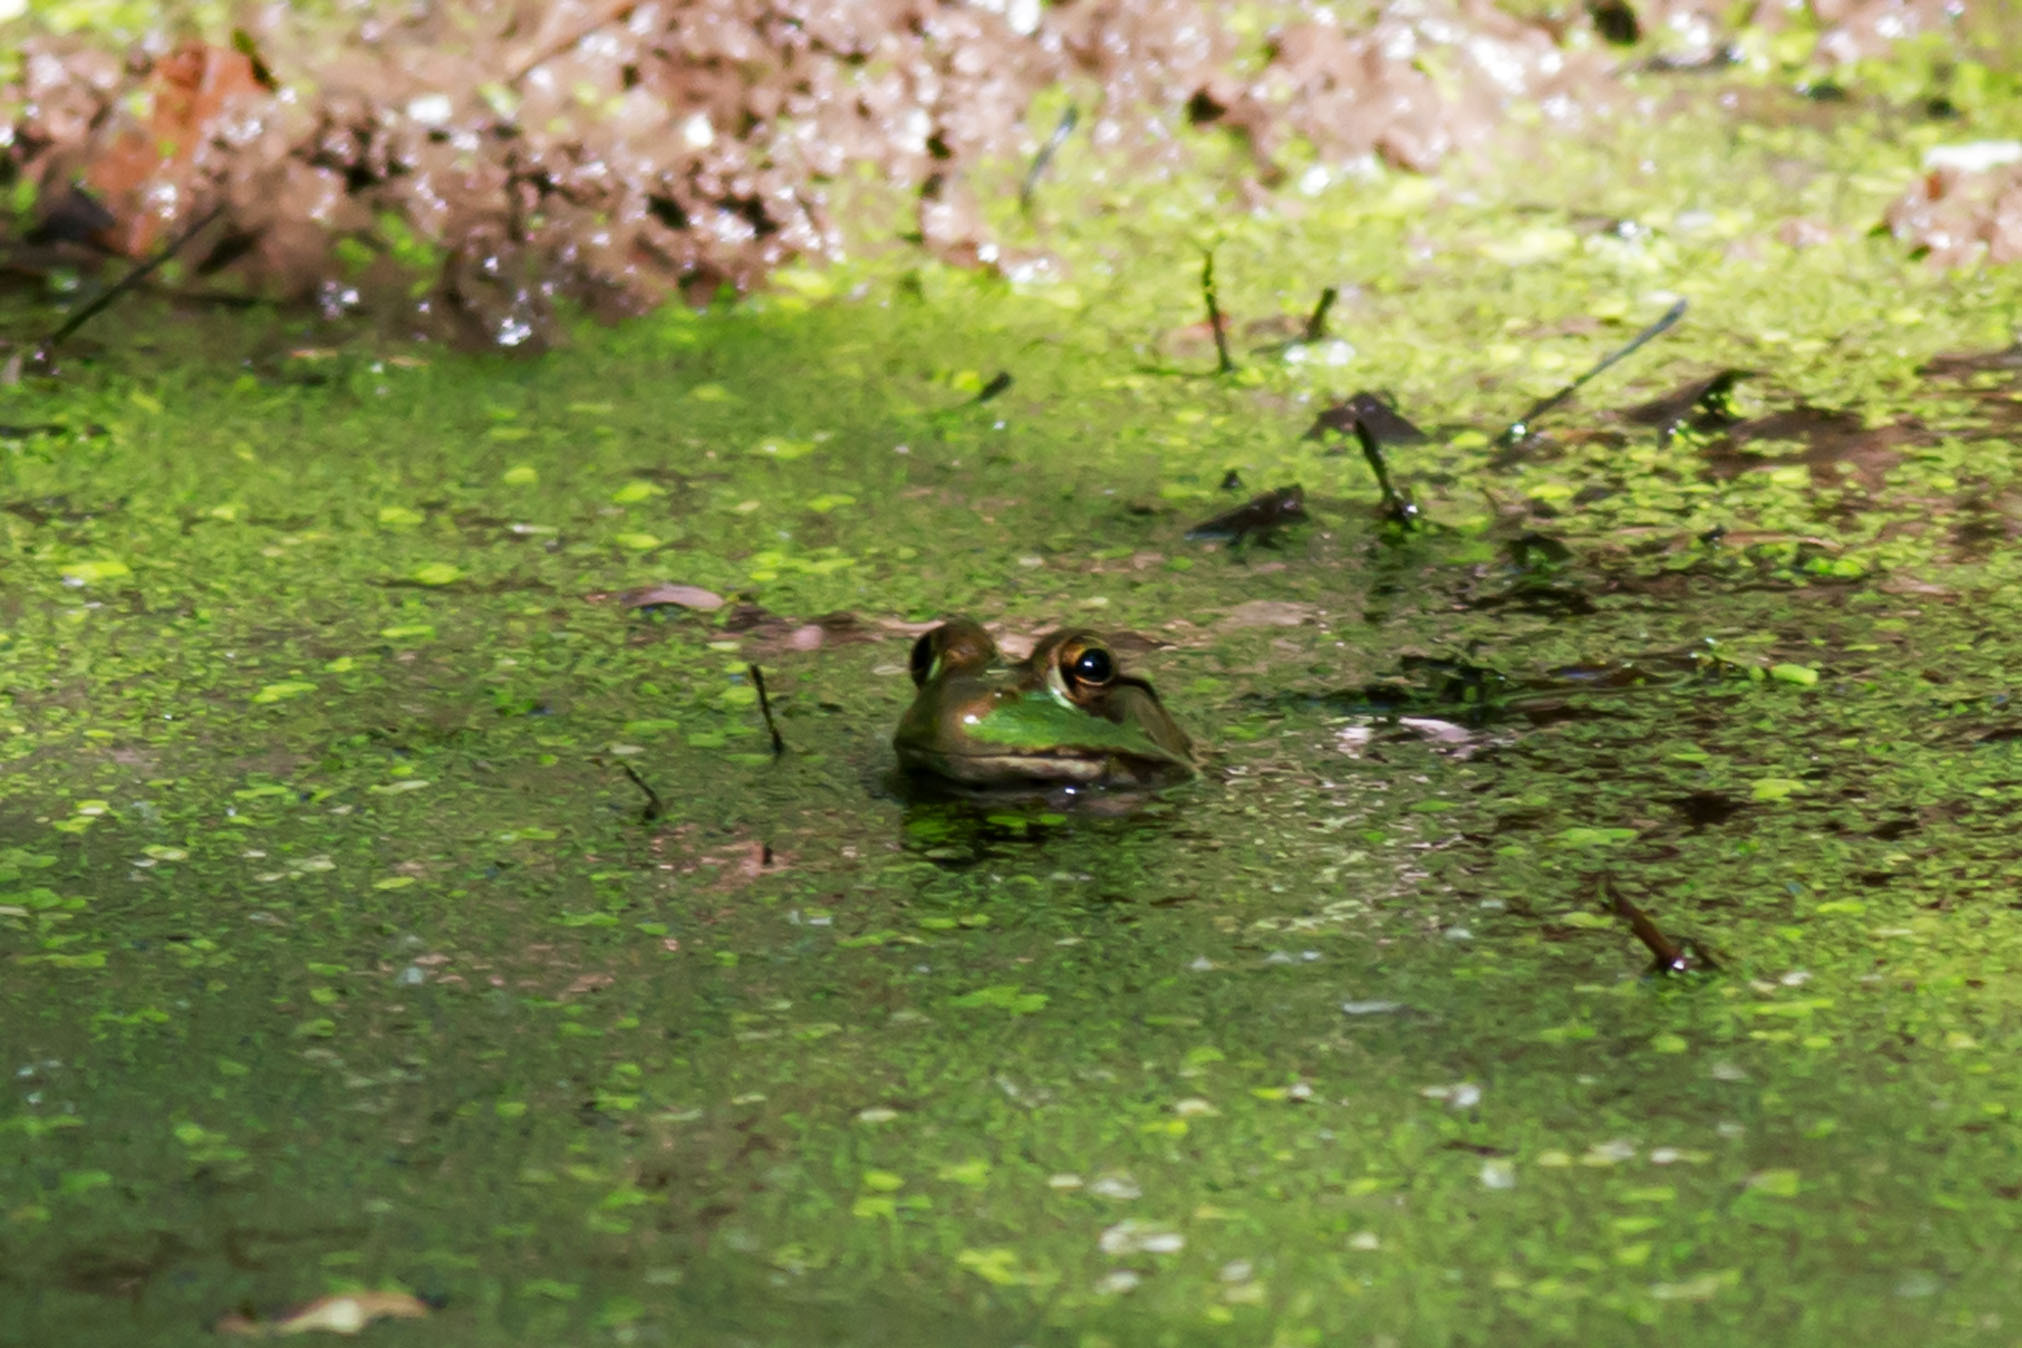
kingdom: Animalia
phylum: Chordata
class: Amphibia
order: Anura
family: Ranidae
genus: Lithobates
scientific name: Lithobates clamitans
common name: Green frog
